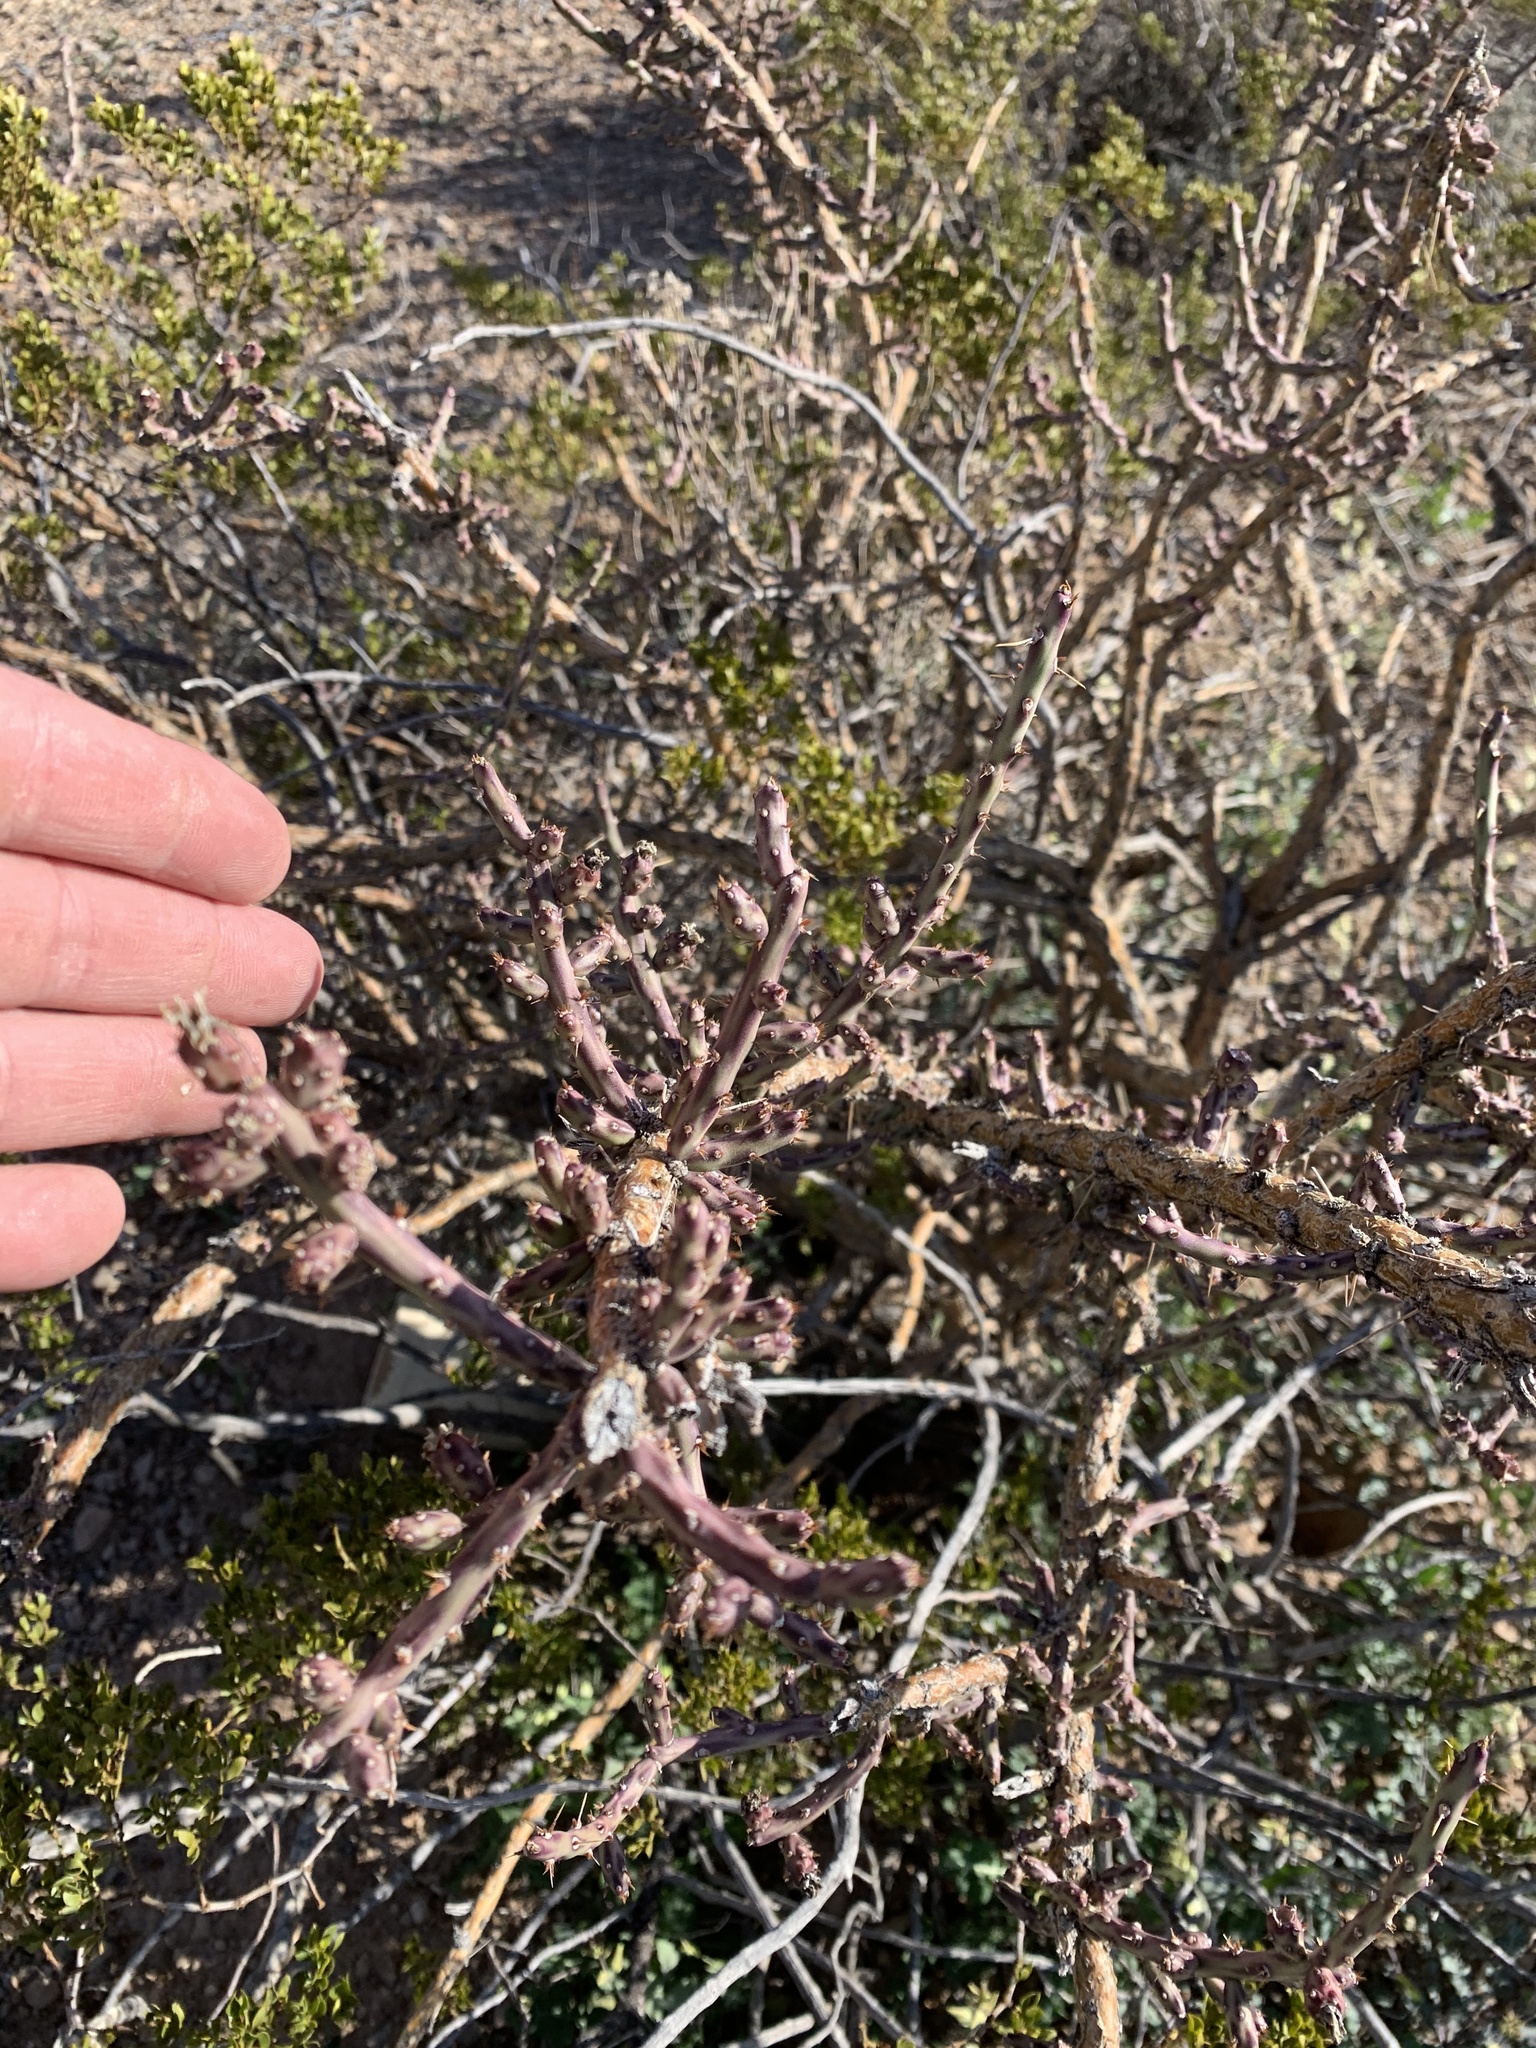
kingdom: Plantae
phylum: Tracheophyta
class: Magnoliopsida
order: Caryophyllales
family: Cactaceae
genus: Cylindropuntia
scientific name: Cylindropuntia leptocaulis
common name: Christmas cactus
